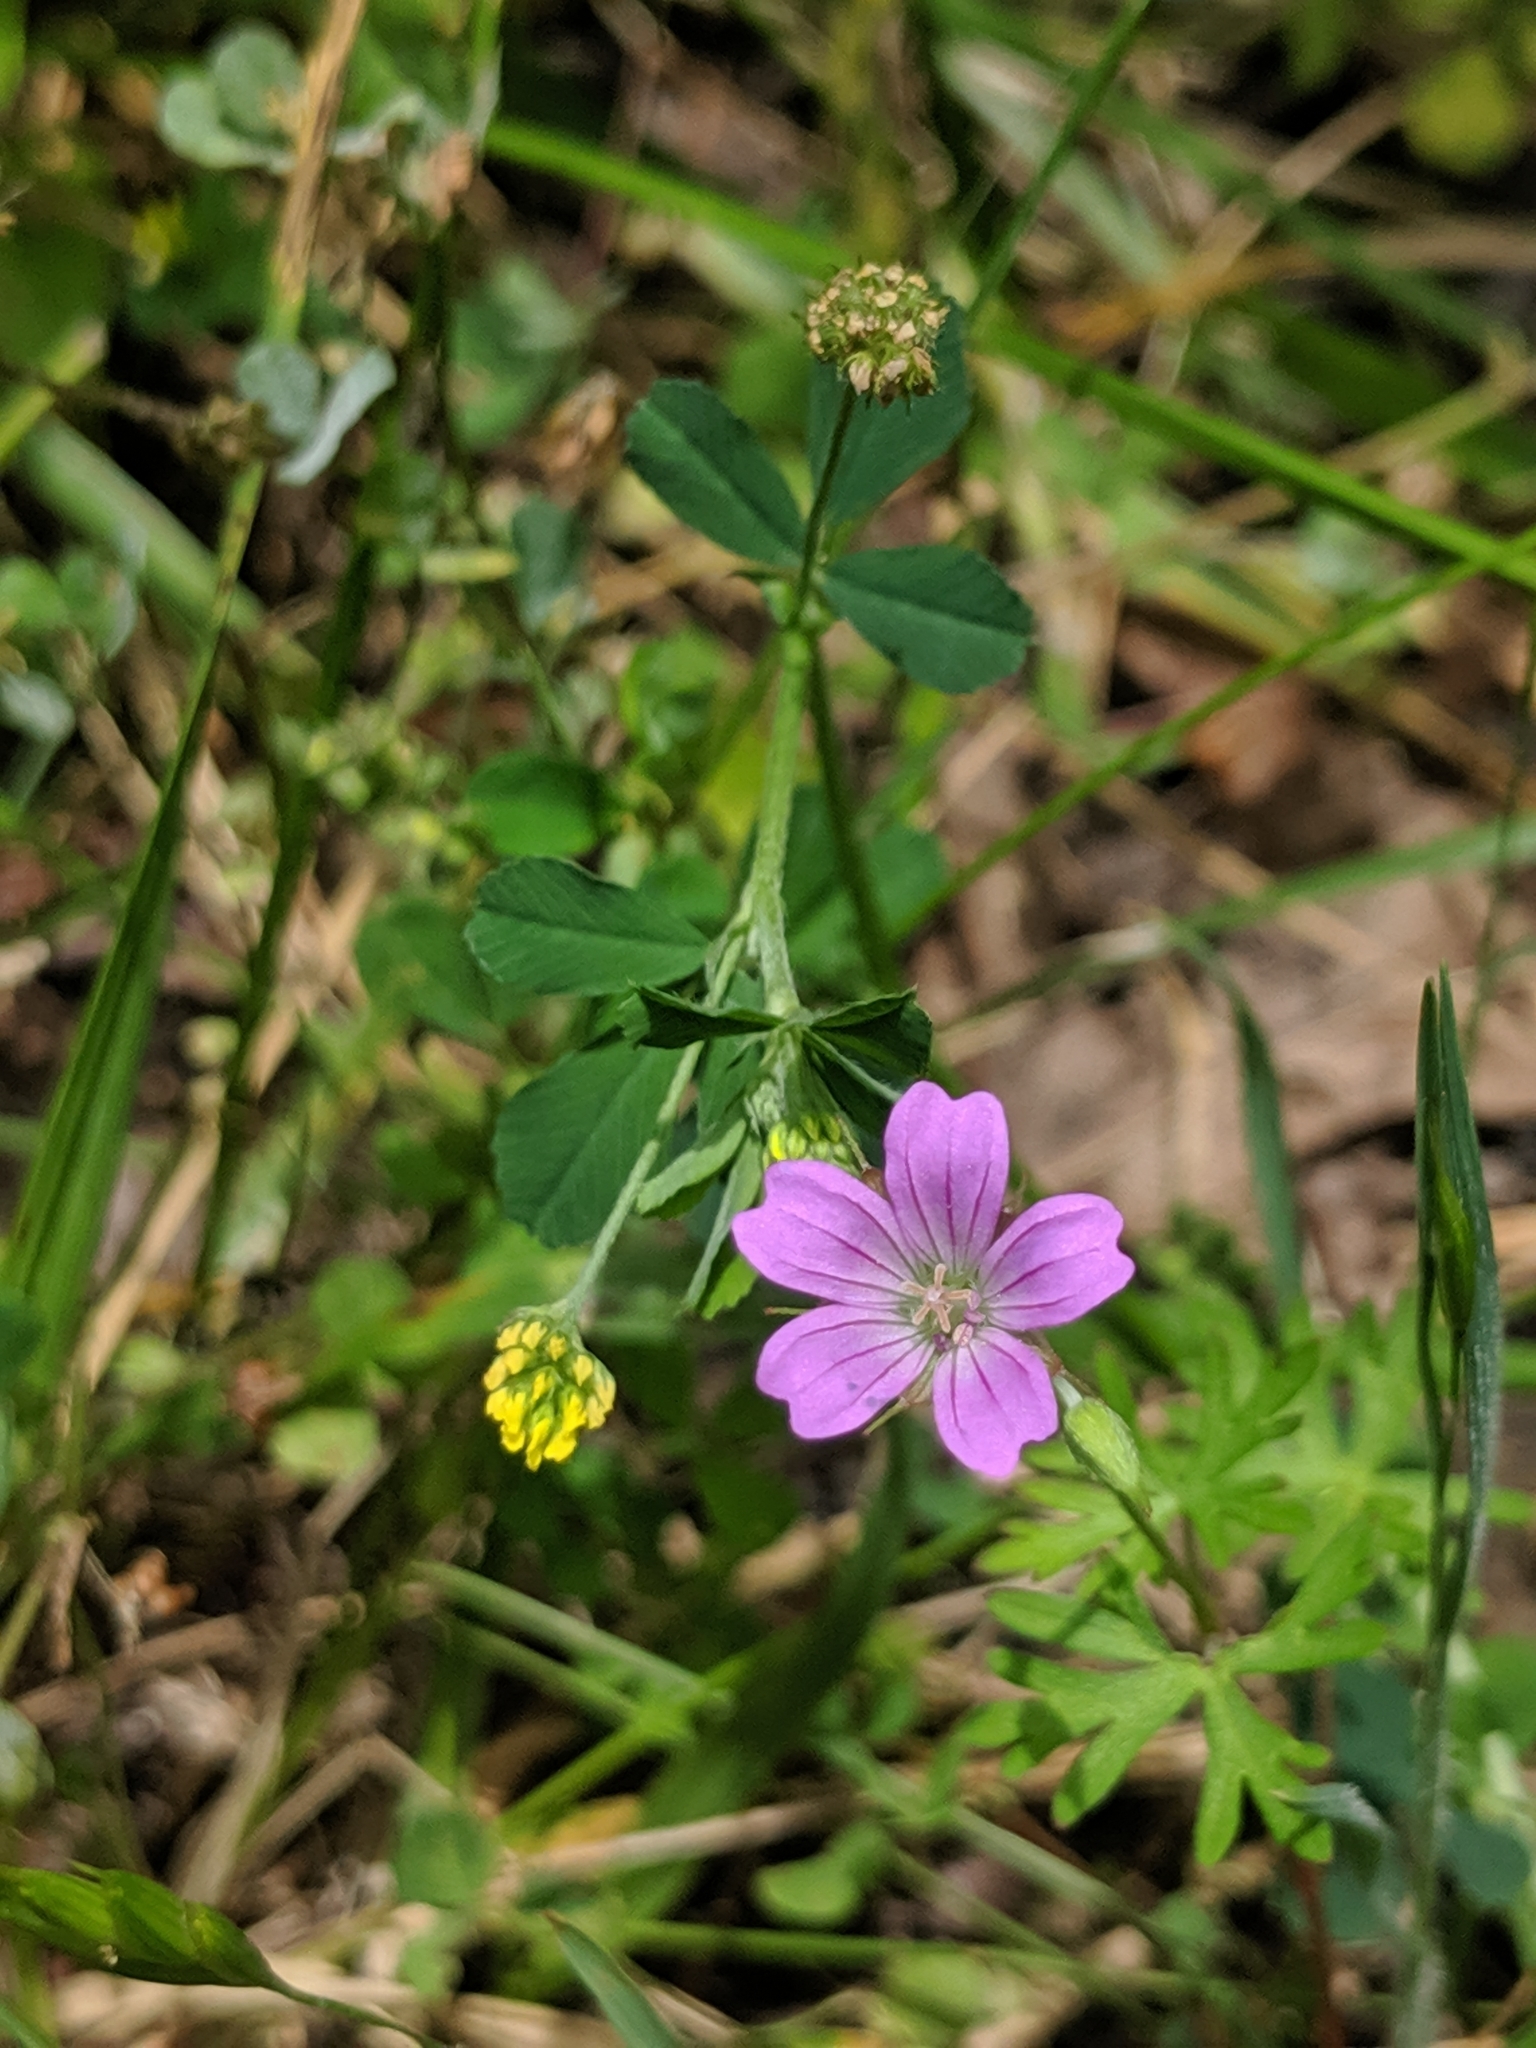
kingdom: Plantae
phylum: Tracheophyta
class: Magnoliopsida
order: Geraniales
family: Geraniaceae
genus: Geranium
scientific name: Geranium columbinum
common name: Long-stalked crane's-bill
